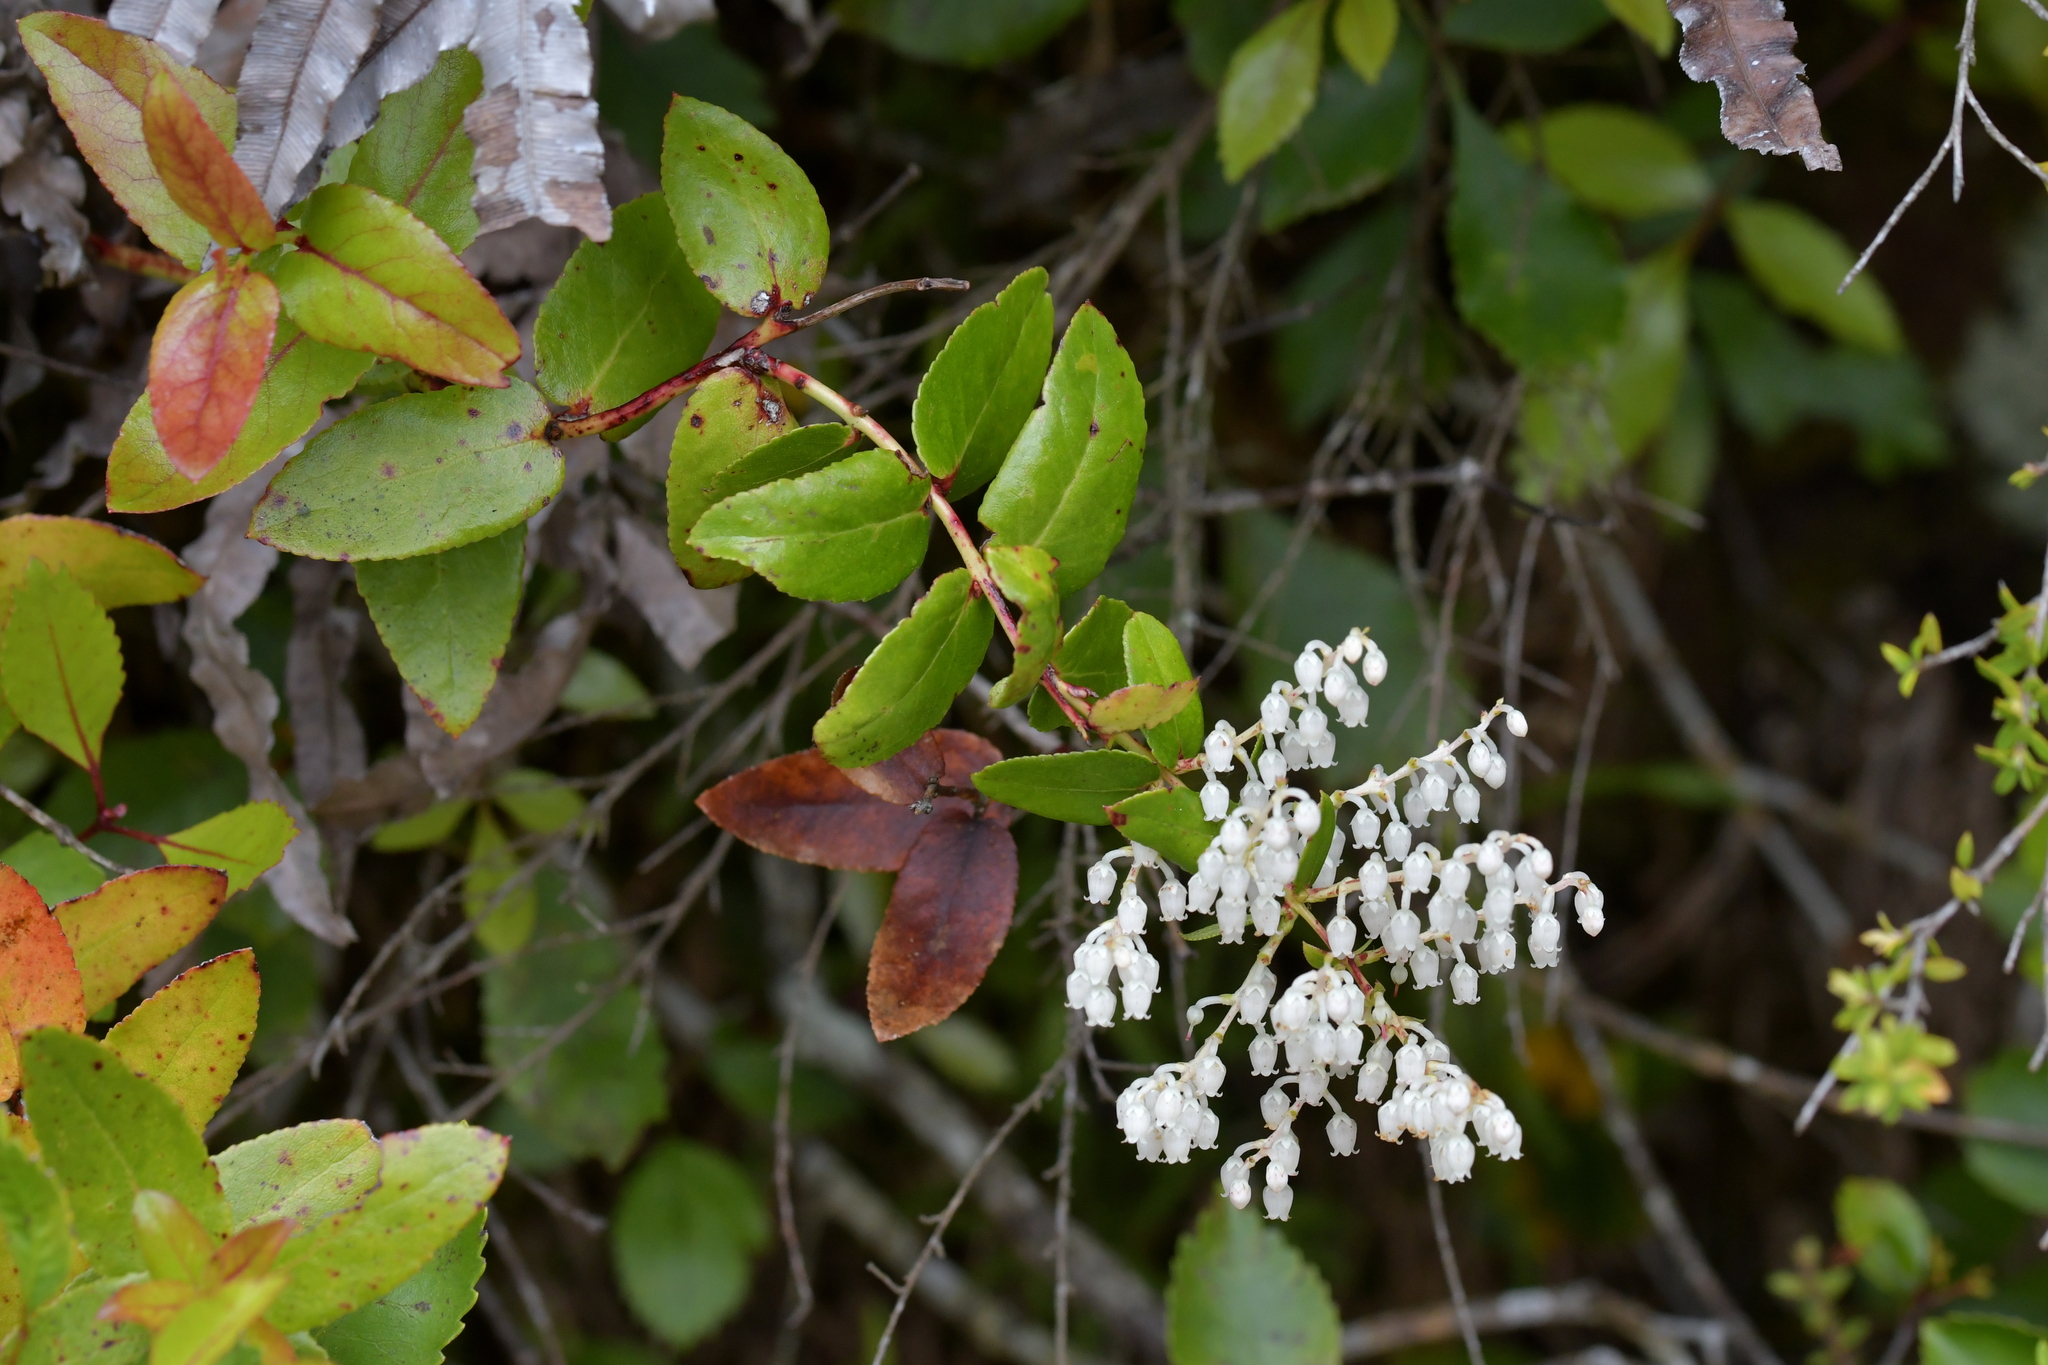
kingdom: Plantae
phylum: Tracheophyta
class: Magnoliopsida
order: Ericales
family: Ericaceae
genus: Gaultheria
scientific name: Gaultheria oppositifolia
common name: Snowberry
